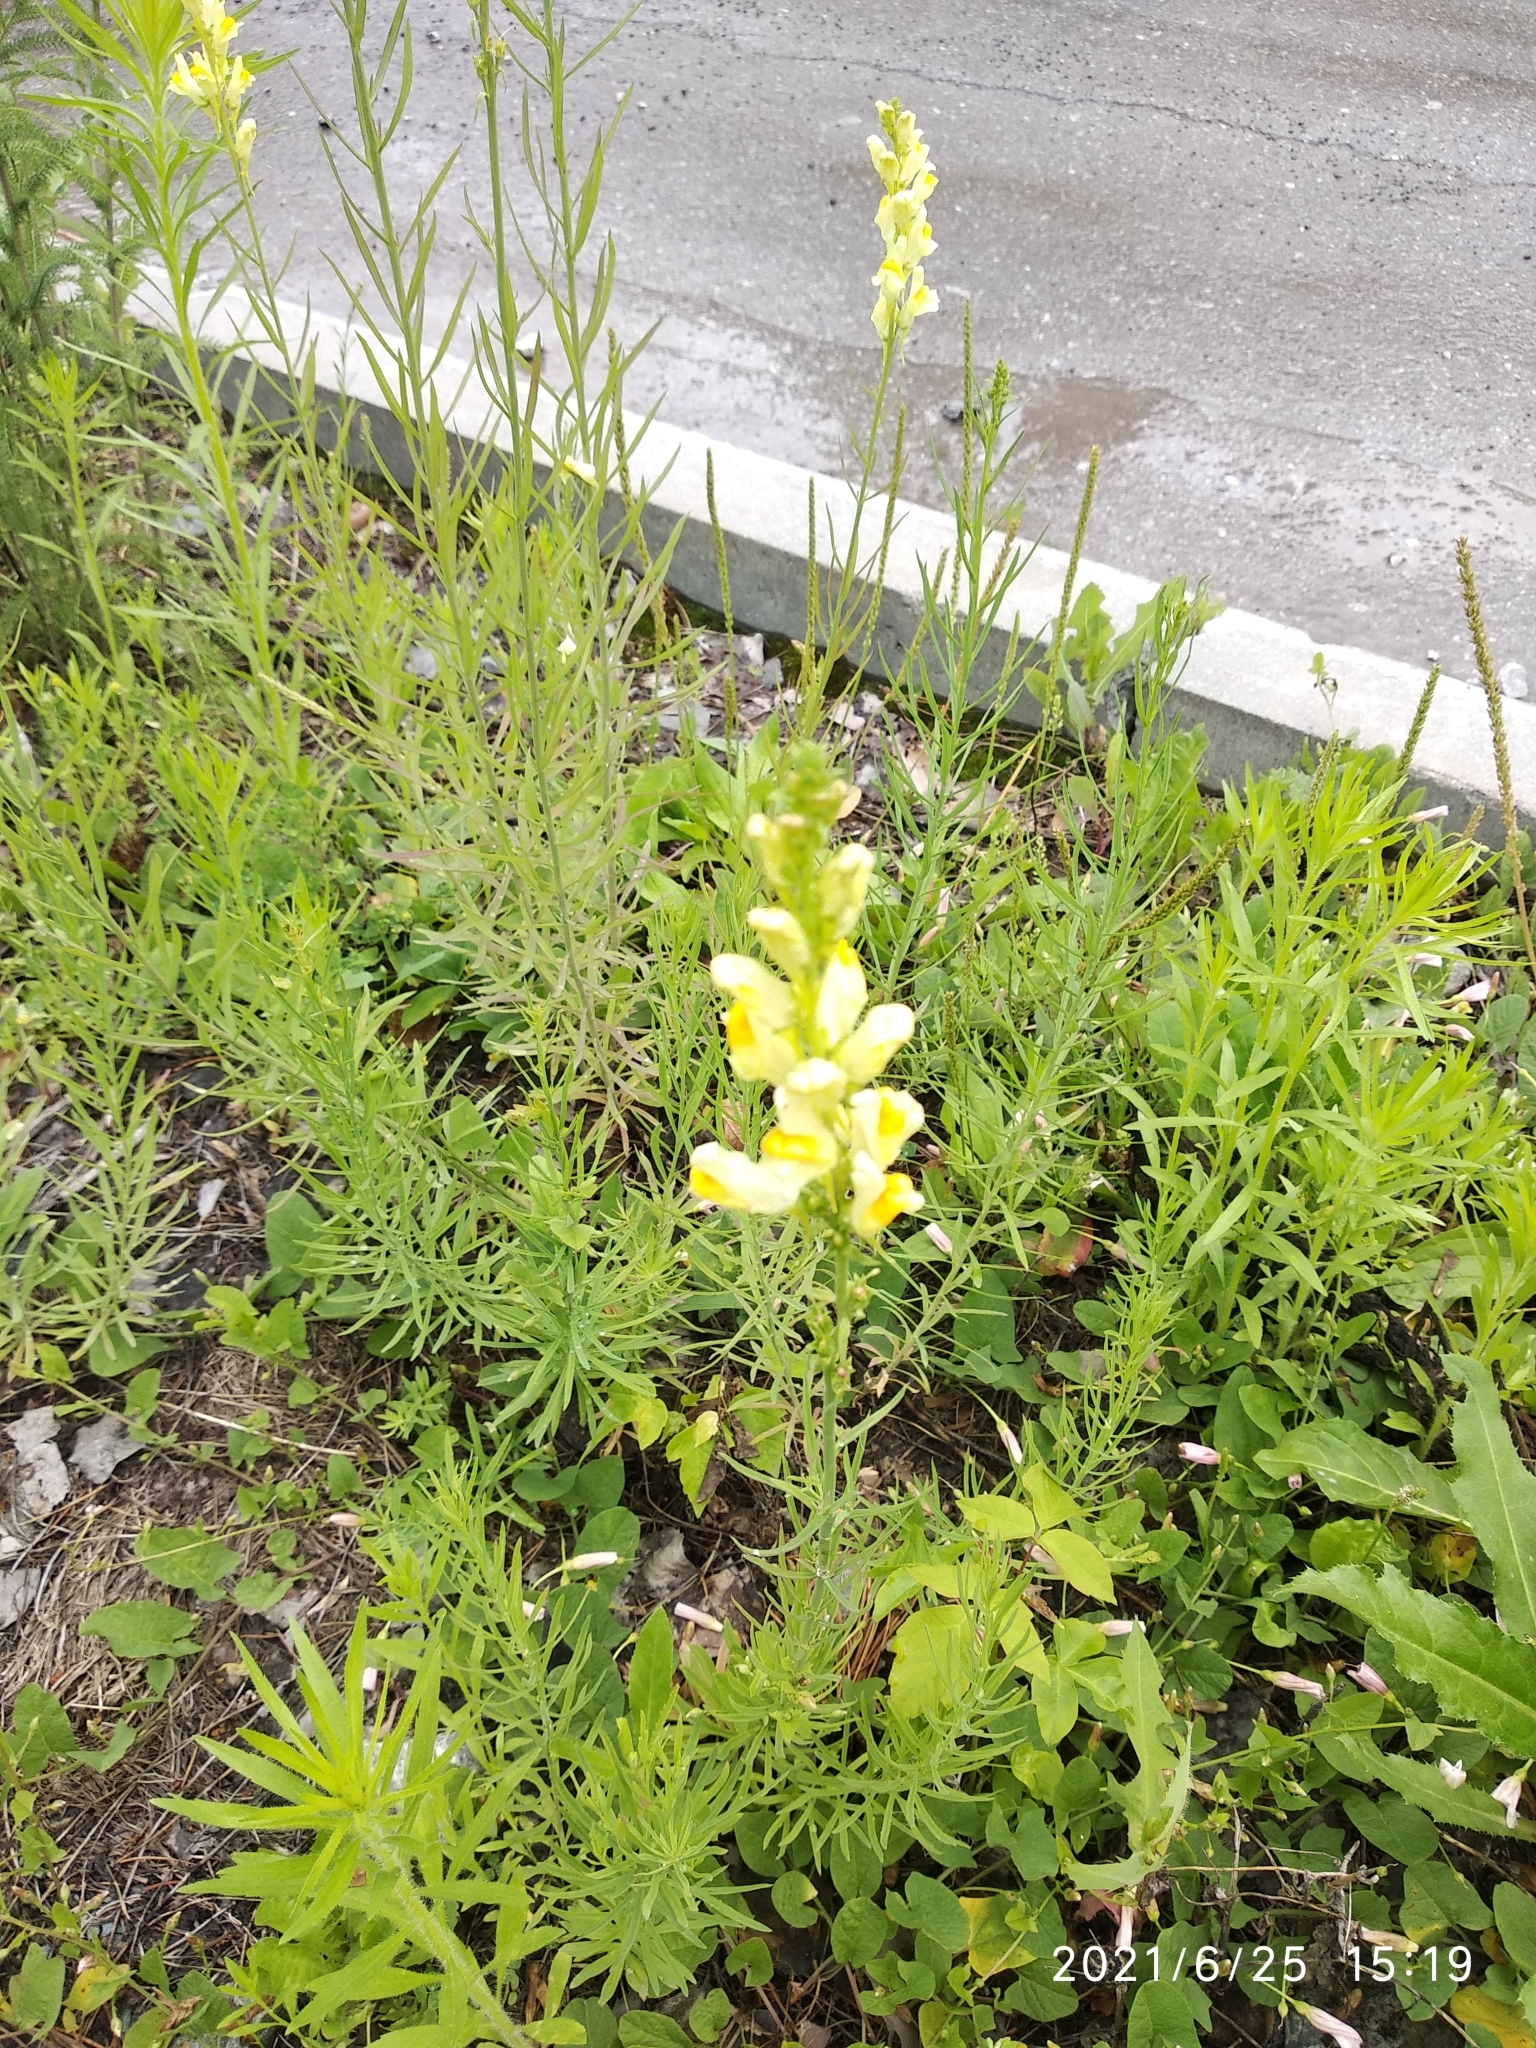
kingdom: Plantae
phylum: Tracheophyta
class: Magnoliopsida
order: Lamiales
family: Plantaginaceae
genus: Linaria
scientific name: Linaria vulgaris
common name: Butter and eggs
